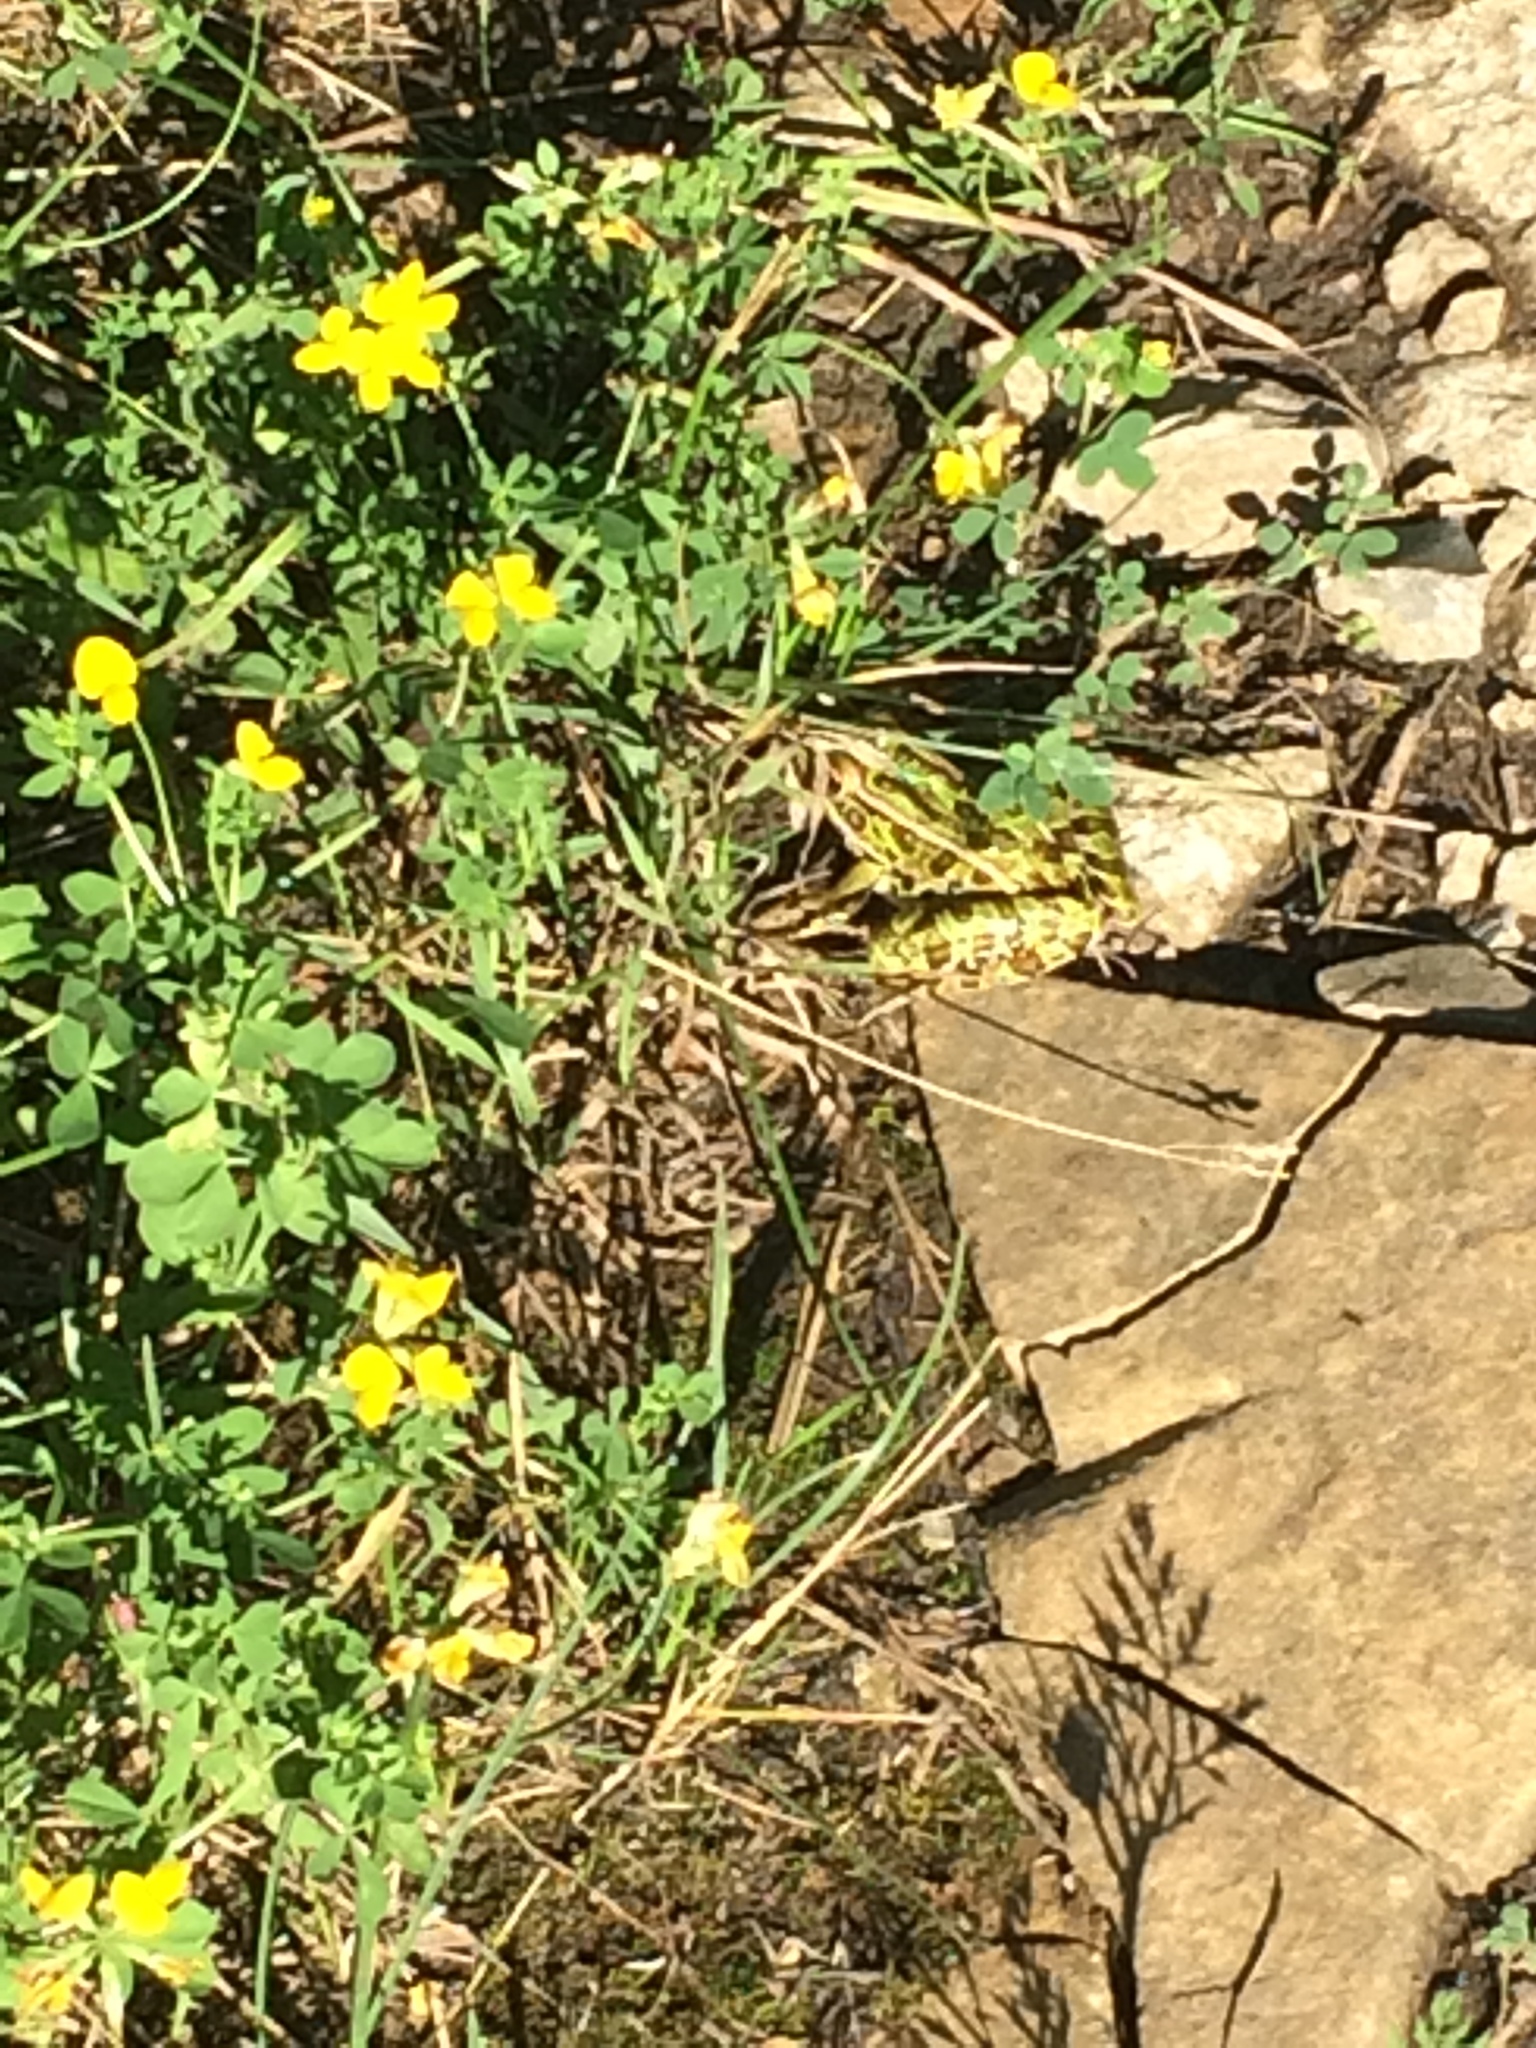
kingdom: Animalia
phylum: Chordata
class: Amphibia
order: Anura
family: Ranidae
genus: Lithobates
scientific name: Lithobates pipiens
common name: Northern leopard frog
